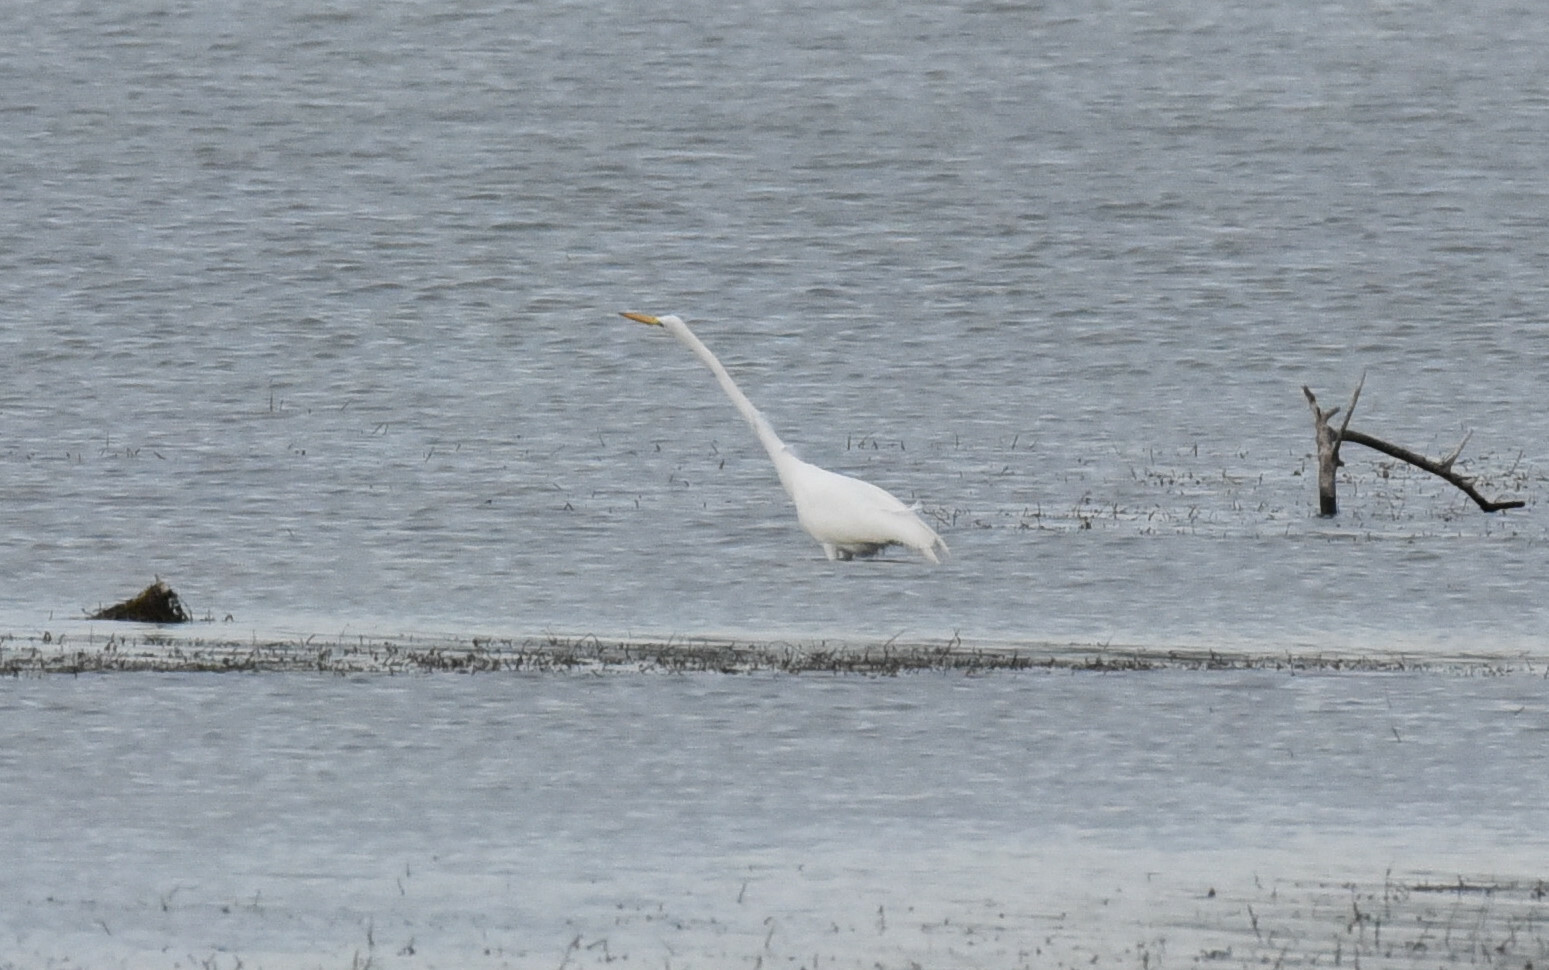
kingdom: Animalia
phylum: Chordata
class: Aves
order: Pelecaniformes
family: Ardeidae
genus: Ardea
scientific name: Ardea alba
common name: Great egret
